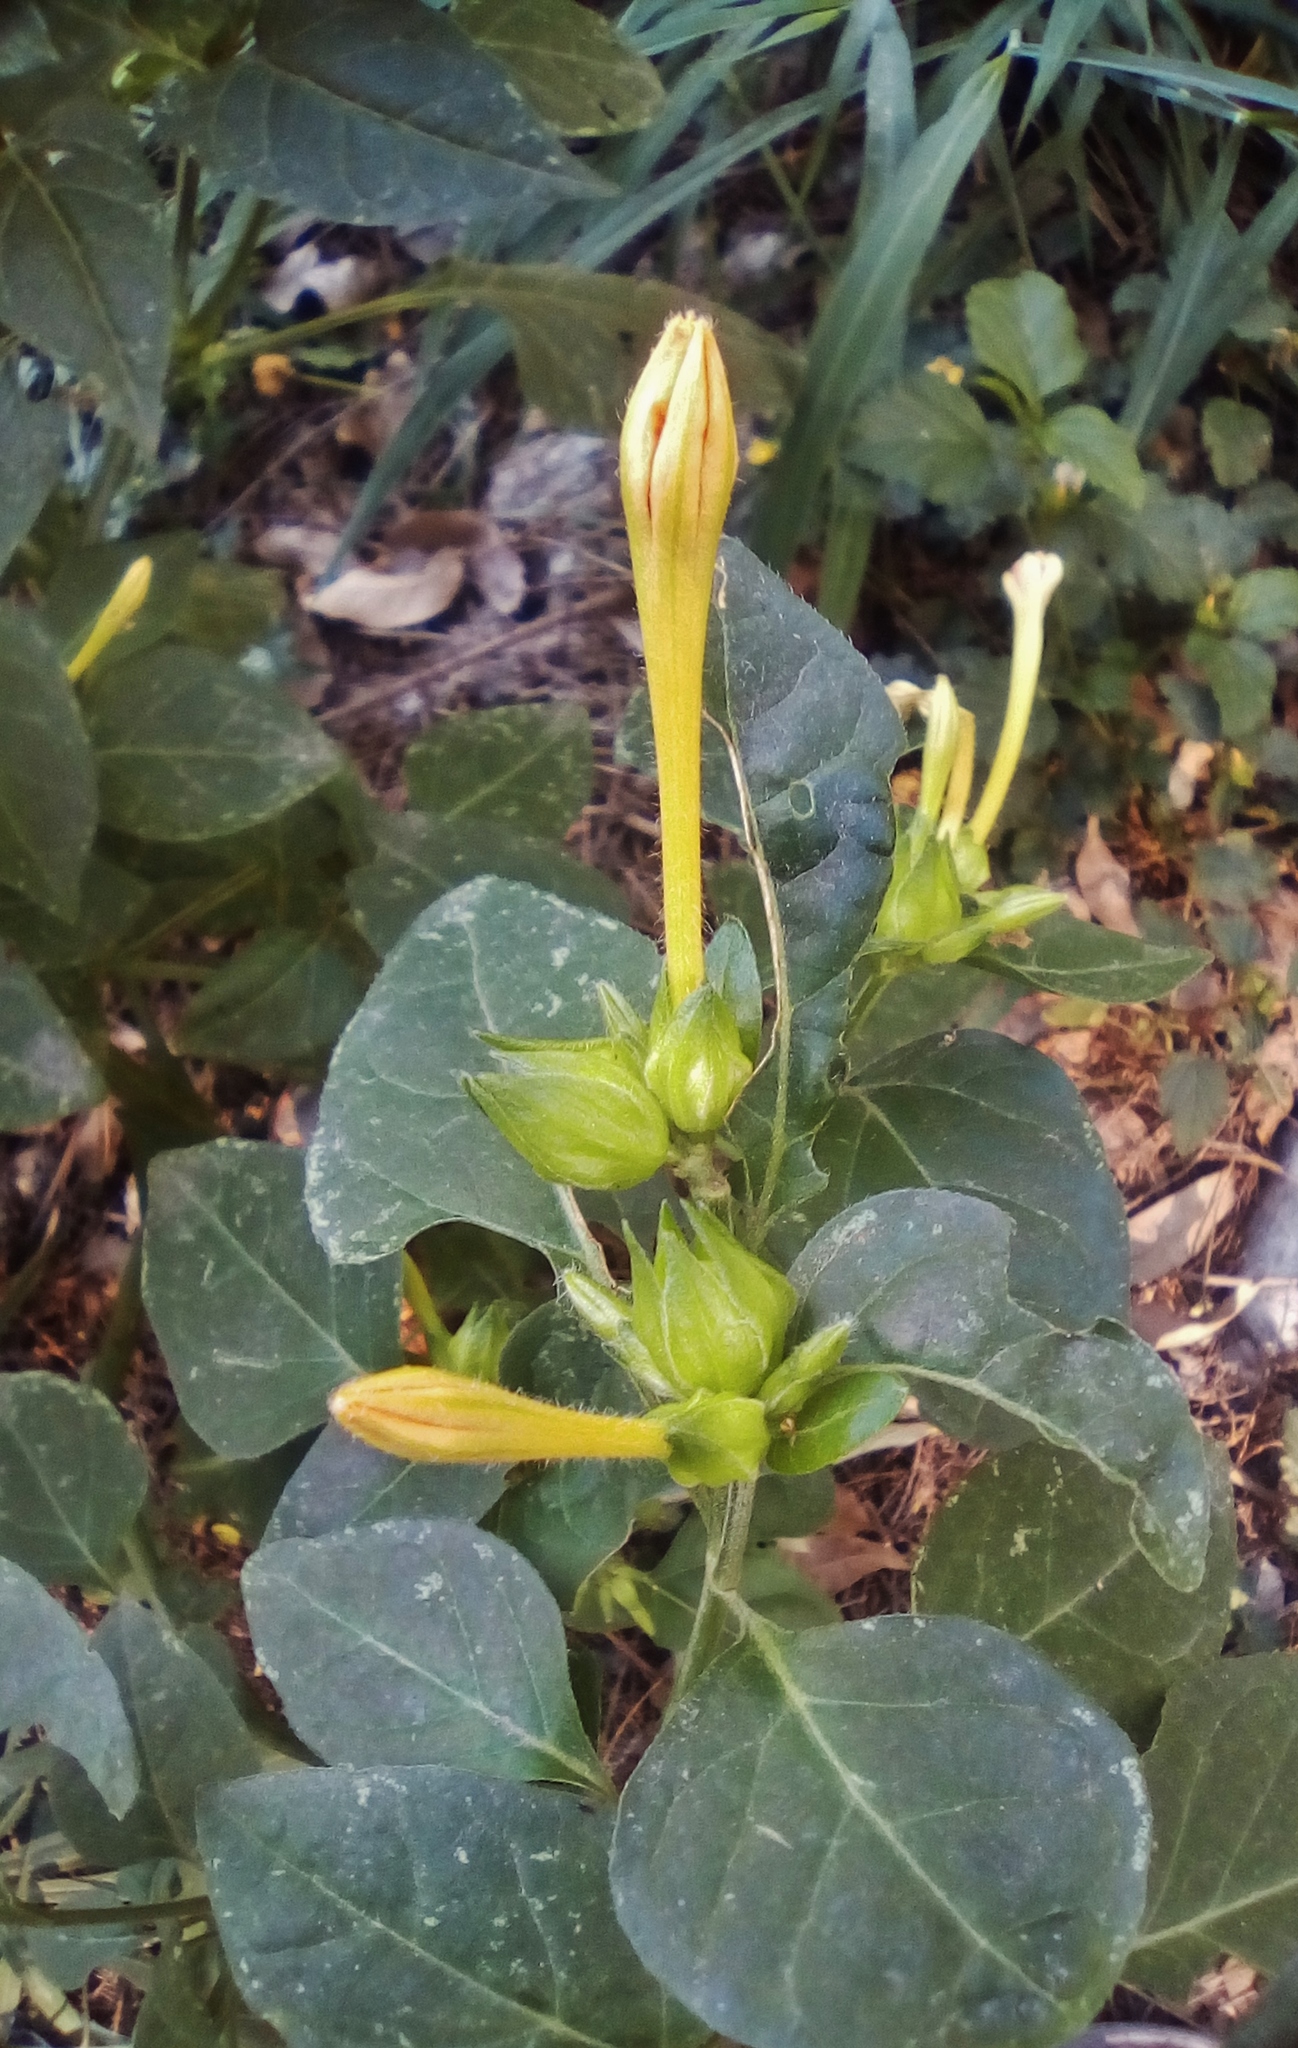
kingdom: Plantae
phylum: Tracheophyta
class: Magnoliopsida
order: Caryophyllales
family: Nyctaginaceae
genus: Mirabilis
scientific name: Mirabilis jalapa
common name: Marvel-of-peru
